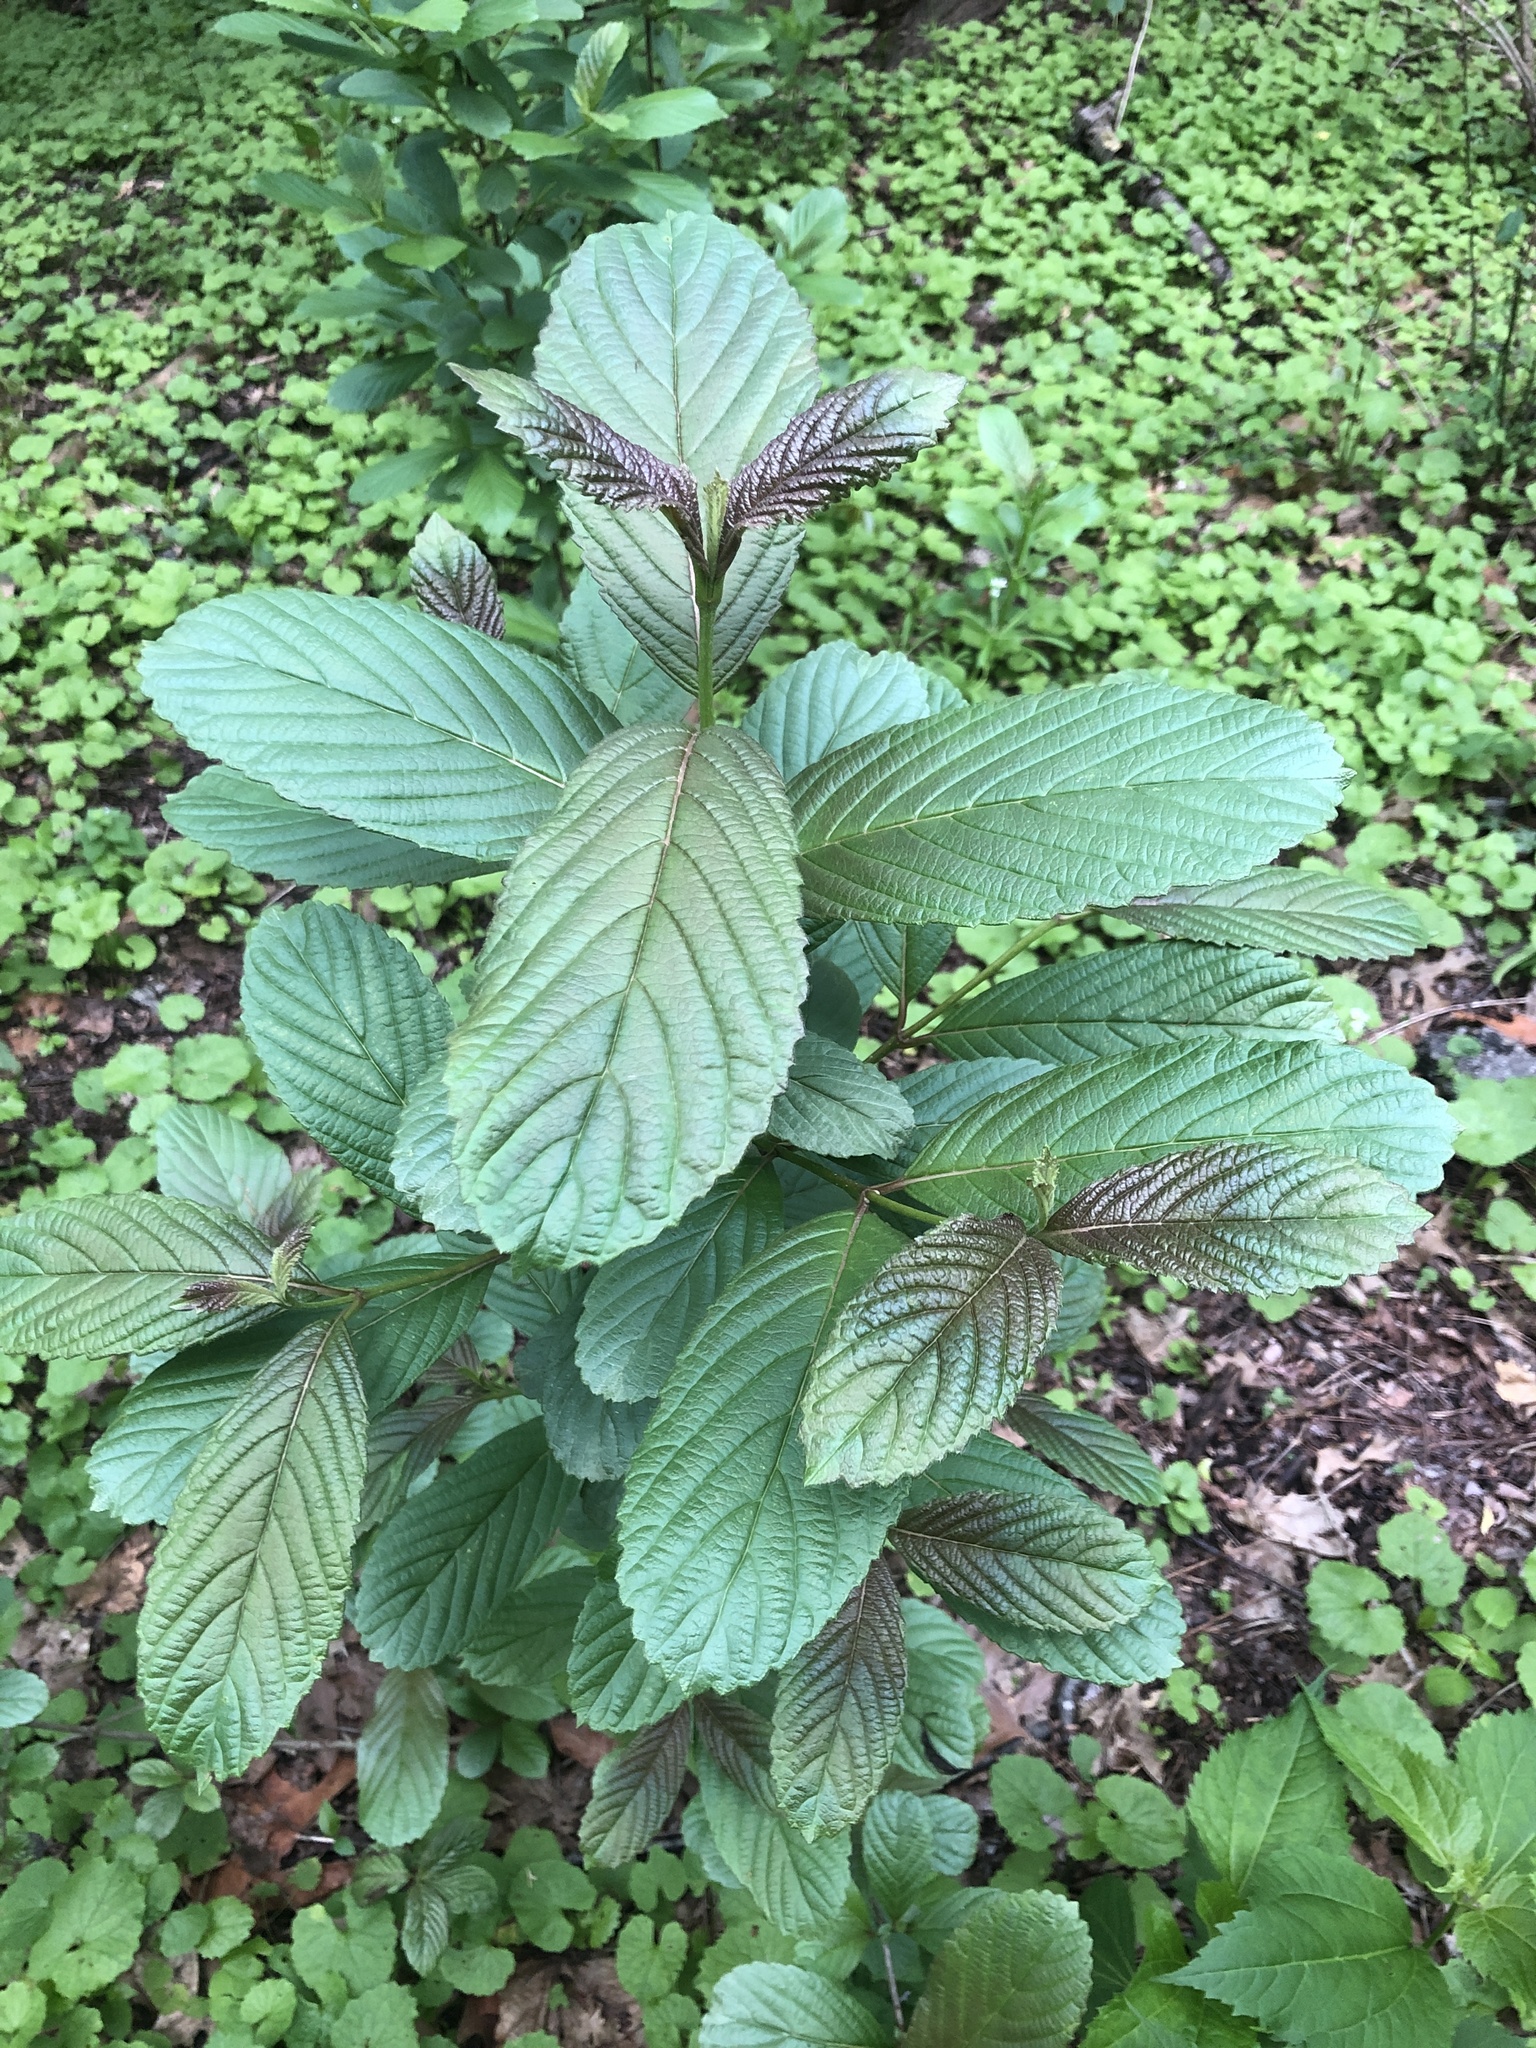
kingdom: Plantae
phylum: Tracheophyta
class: Magnoliopsida
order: Dipsacales
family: Viburnaceae
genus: Viburnum
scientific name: Viburnum sieboldii
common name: Siebold's arrowwood
